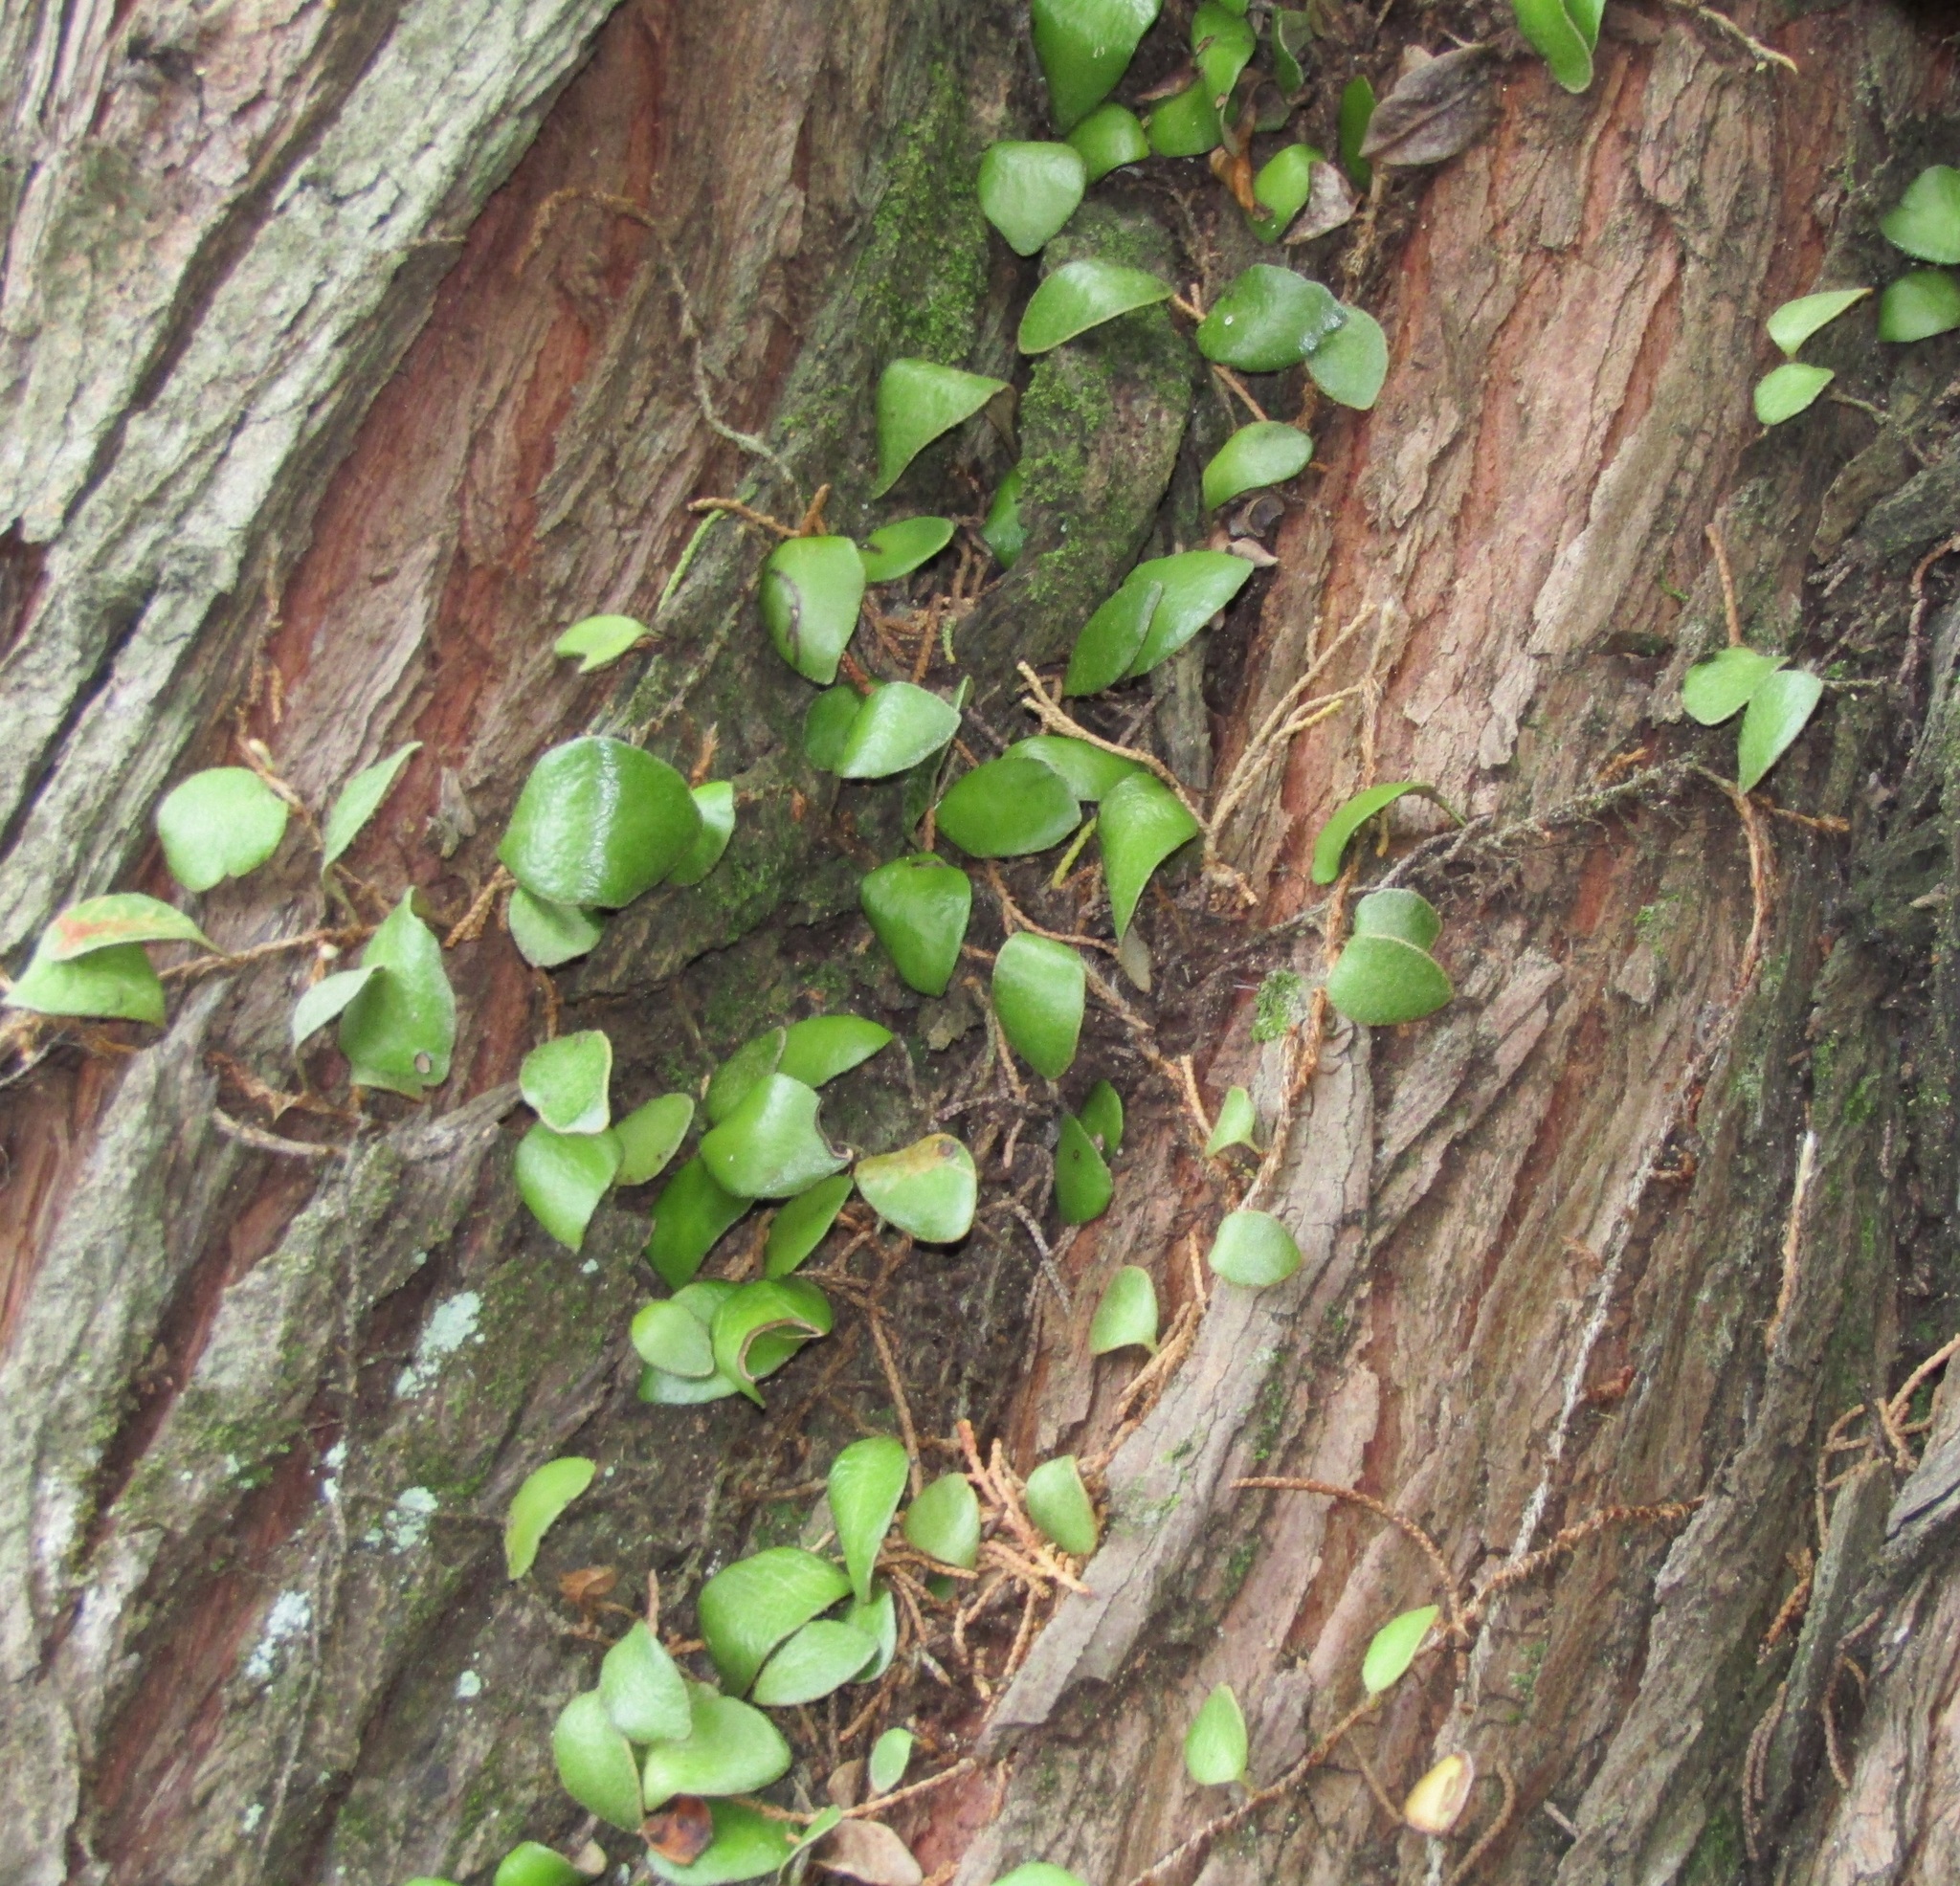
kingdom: Plantae
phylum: Tracheophyta
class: Polypodiopsida
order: Polypodiales
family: Polypodiaceae
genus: Pyrrosia
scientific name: Pyrrosia eleagnifolia
